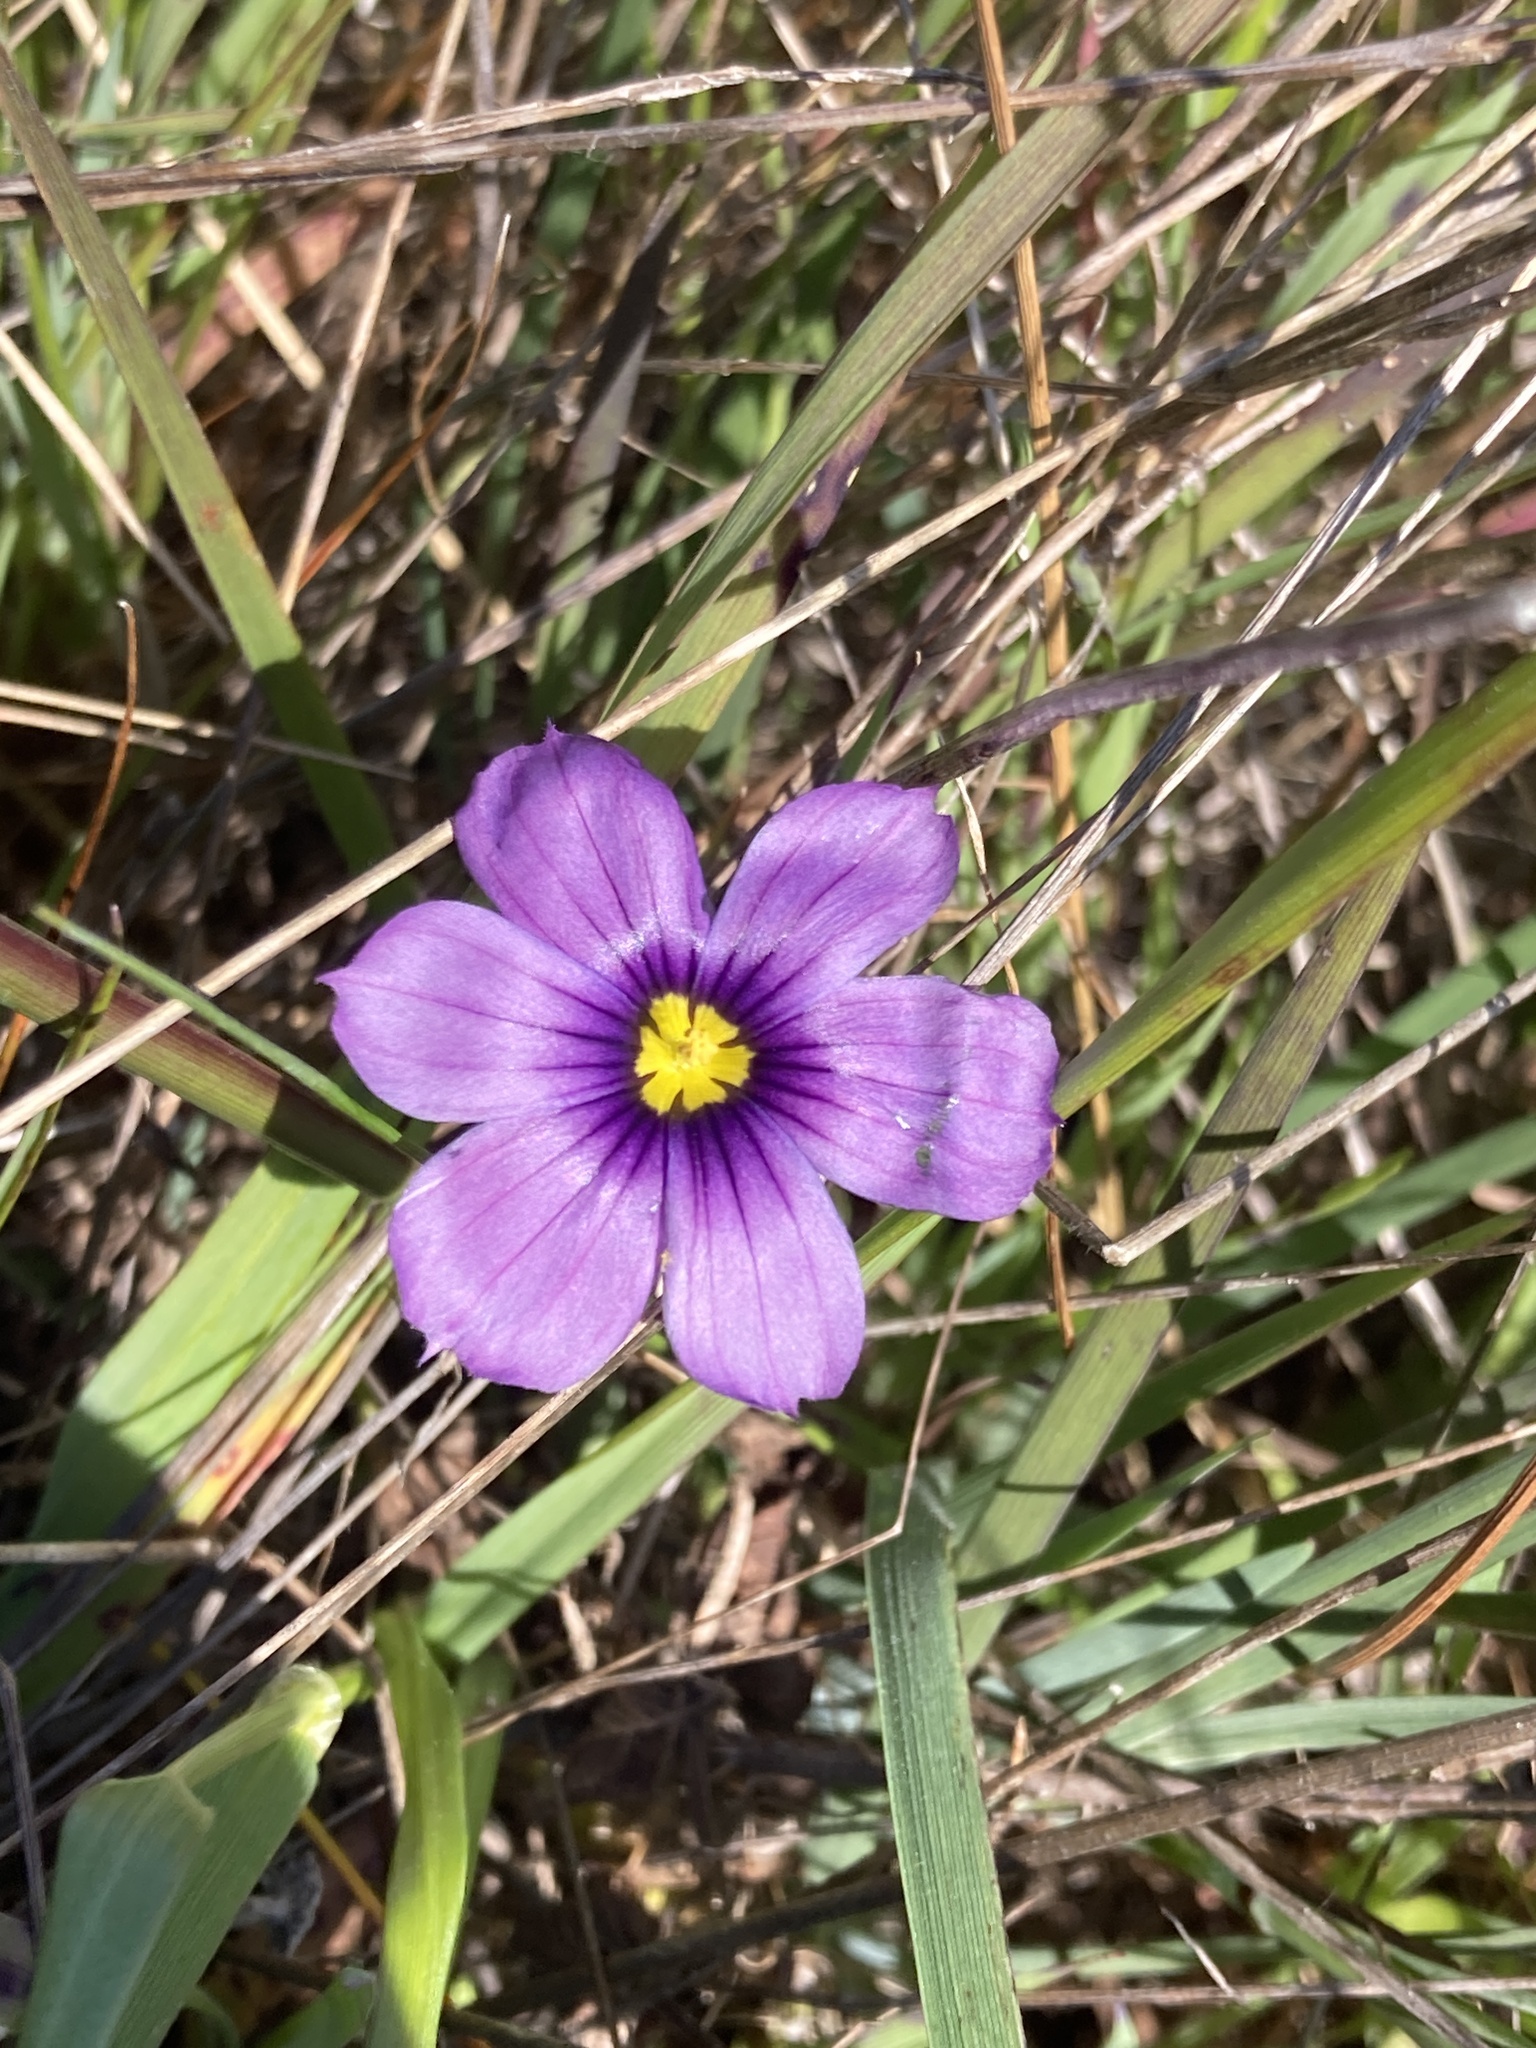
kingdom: Plantae
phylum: Tracheophyta
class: Liliopsida
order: Asparagales
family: Iridaceae
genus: Sisyrinchium
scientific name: Sisyrinchium bellum
